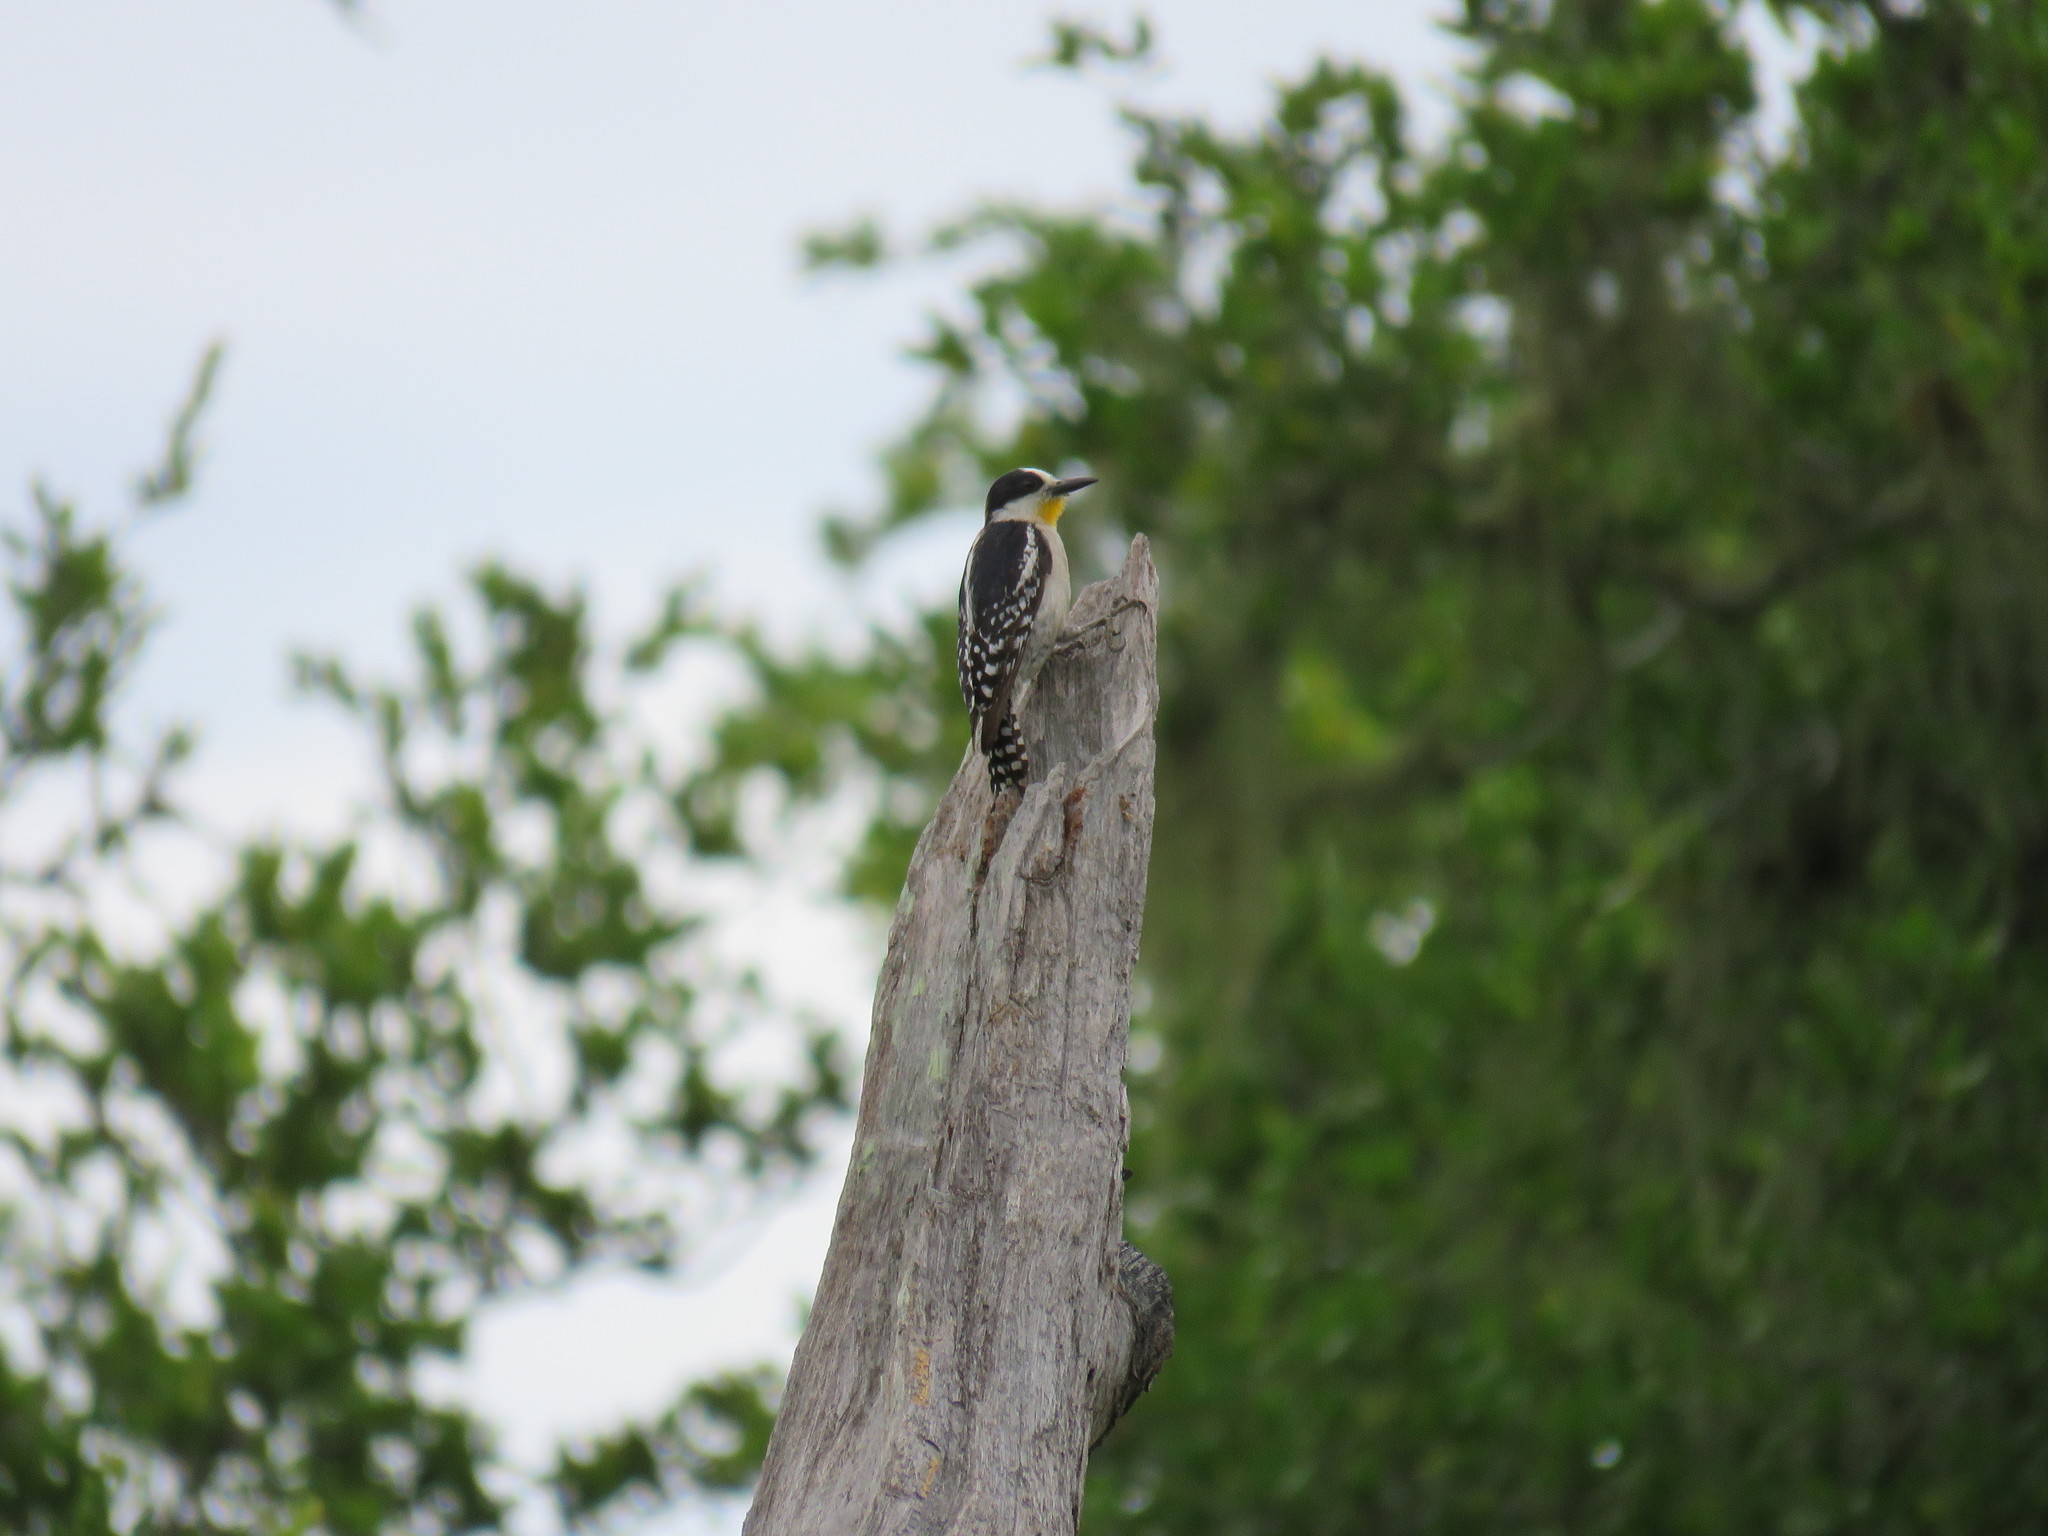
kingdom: Animalia
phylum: Chordata
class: Aves
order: Piciformes
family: Picidae
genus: Melanerpes
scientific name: Melanerpes cactorum
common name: White-fronted woodpecker
